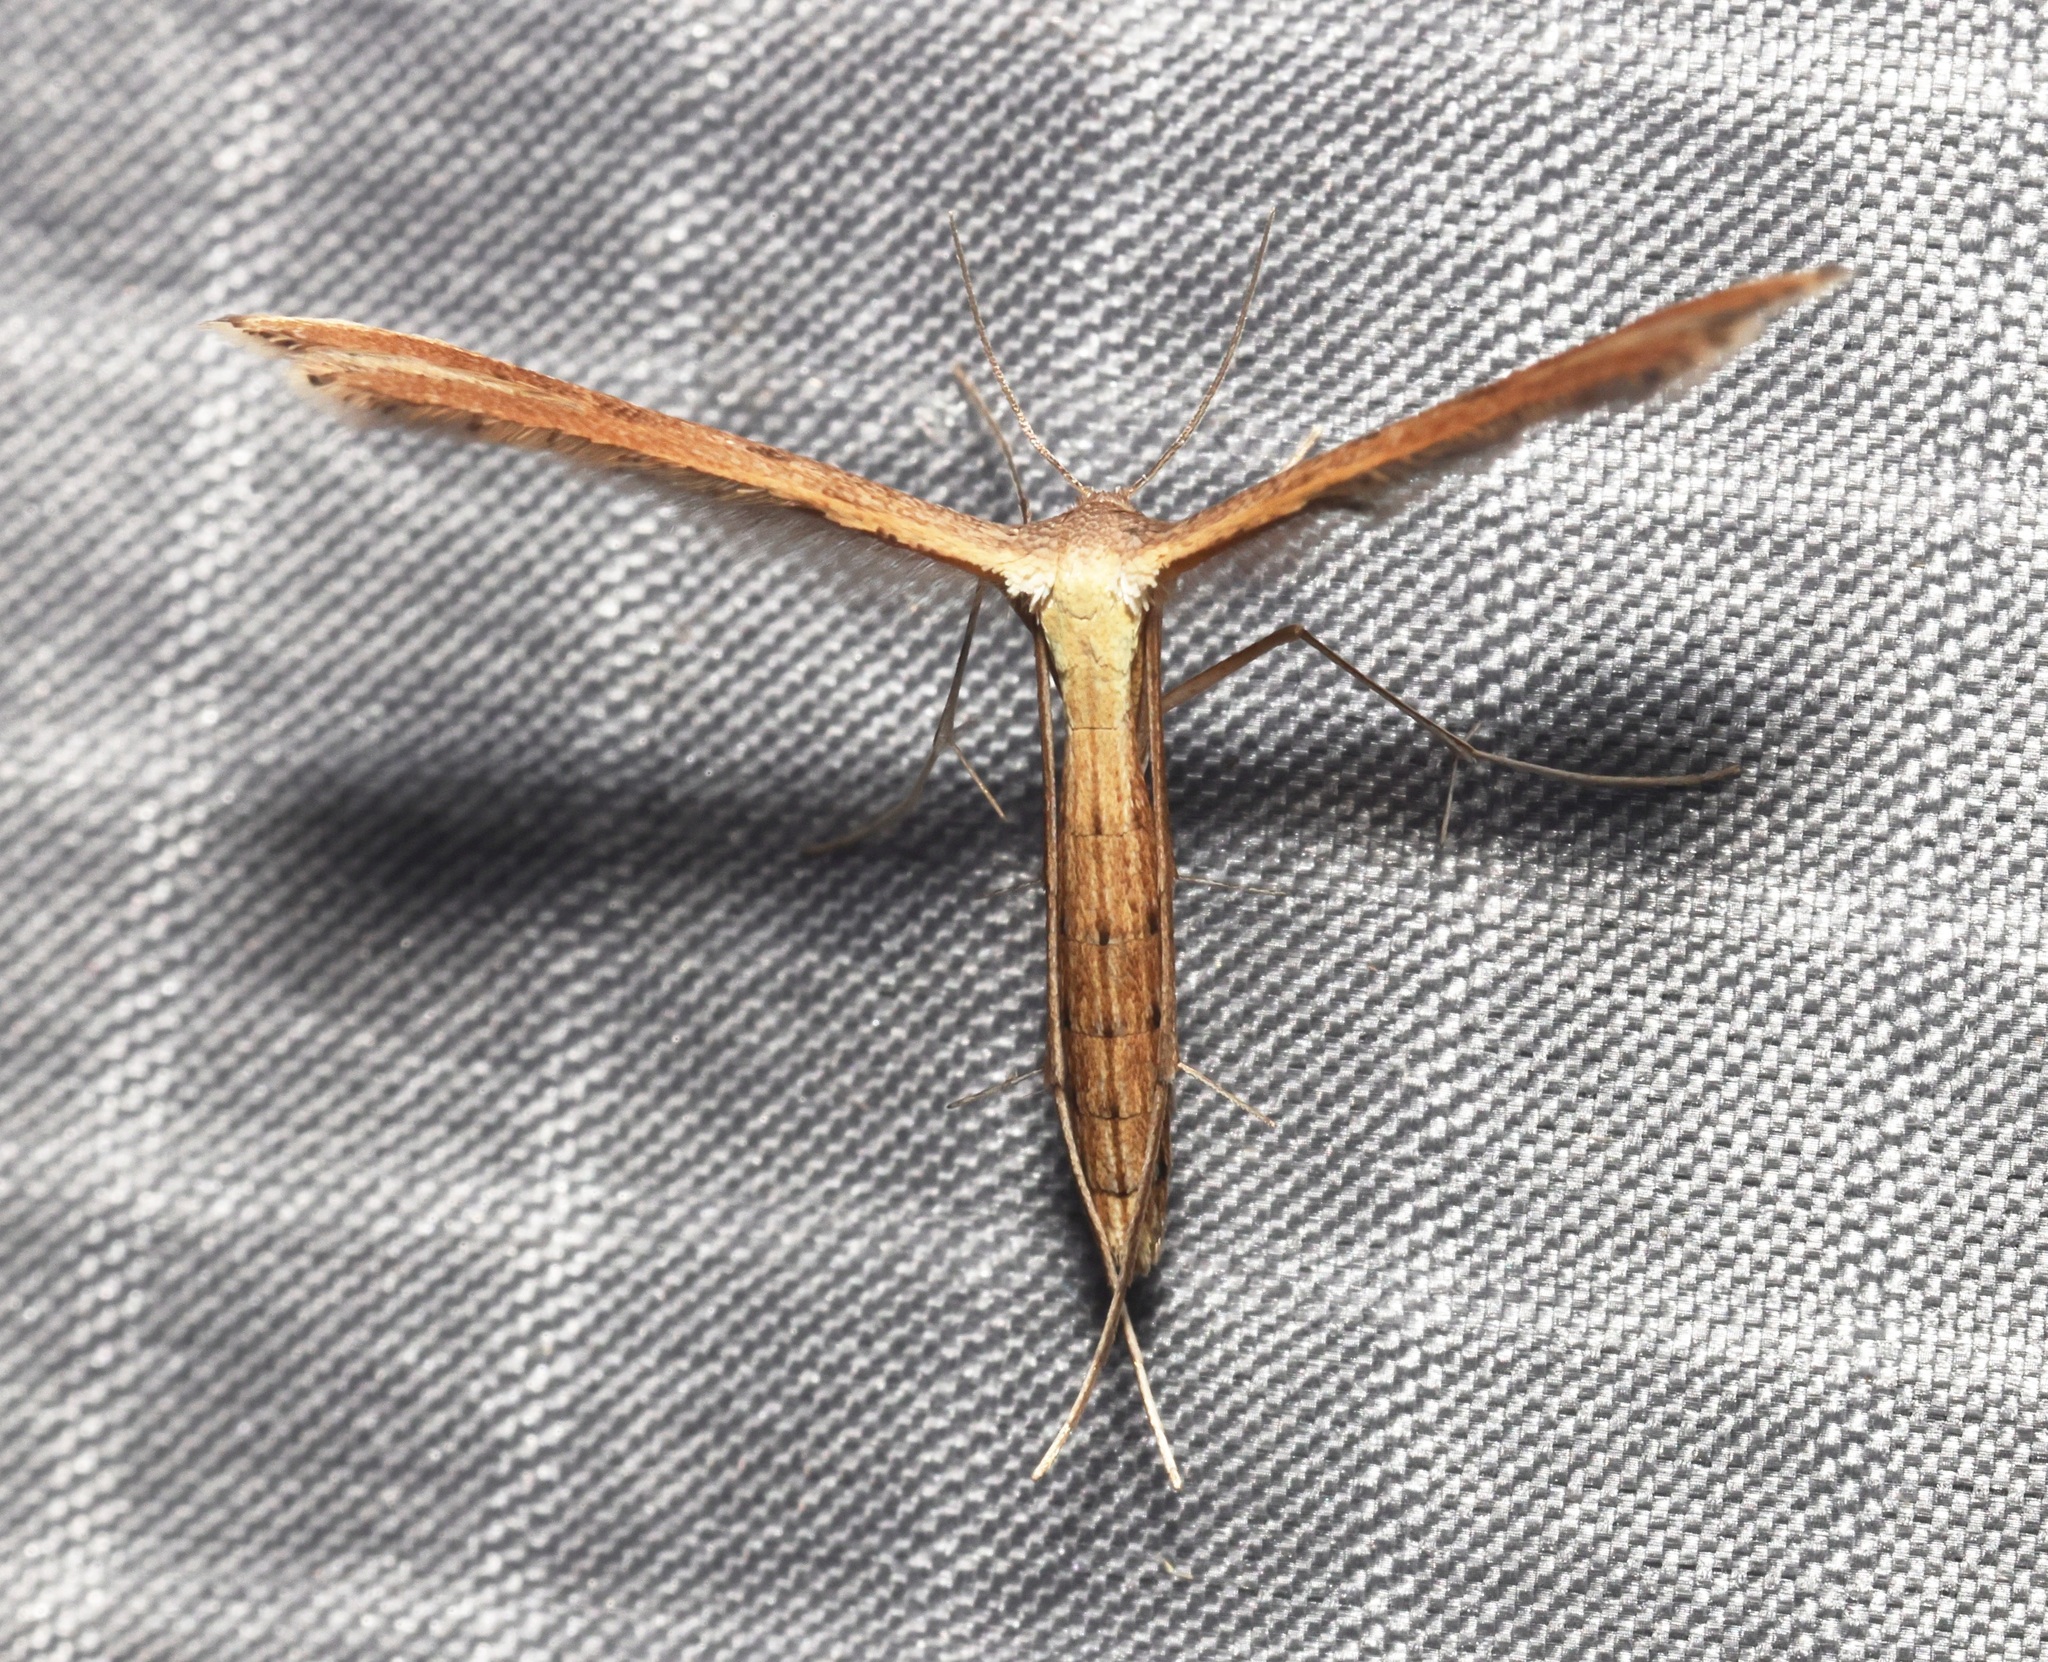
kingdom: Animalia
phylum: Arthropoda
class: Insecta
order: Lepidoptera
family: Pterophoridae
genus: Exelastis
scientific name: Exelastis pumilio
